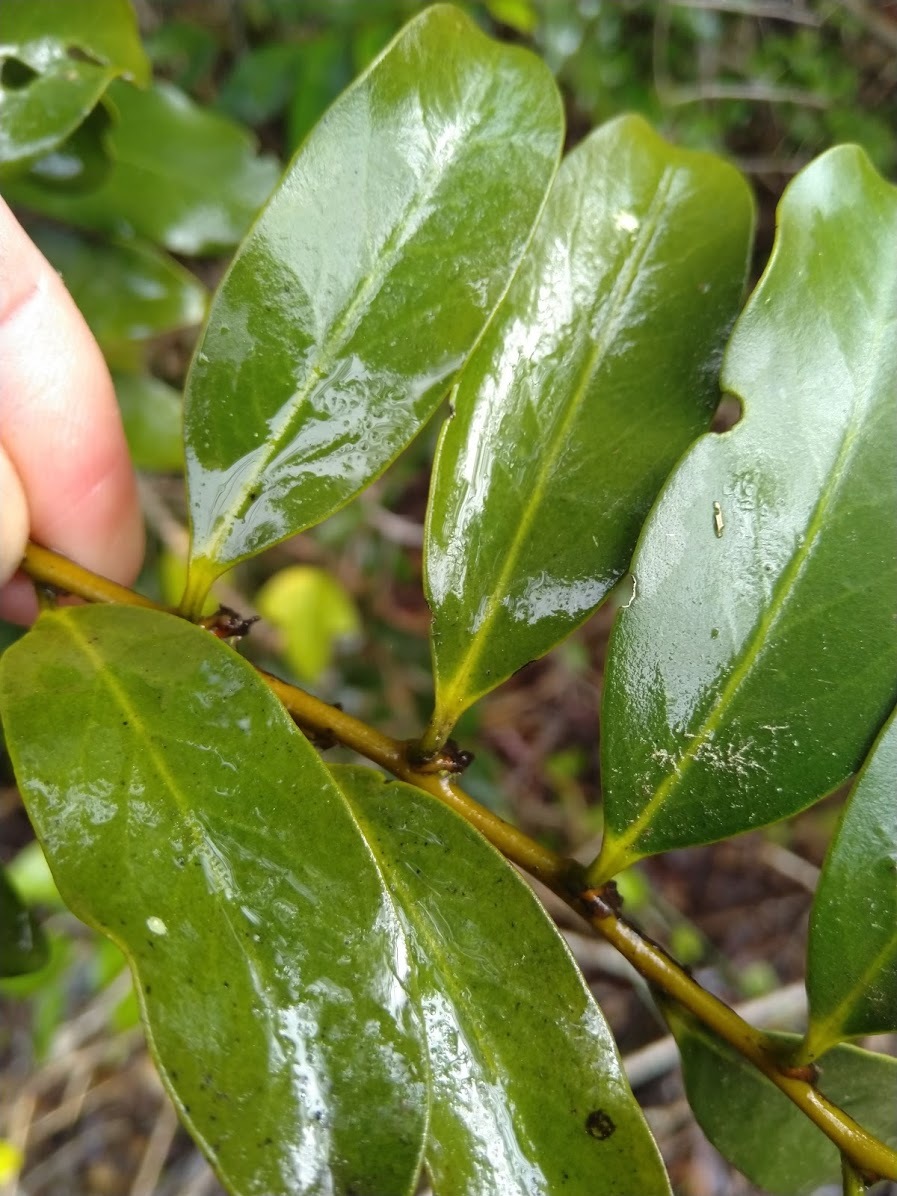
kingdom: Plantae
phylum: Tracheophyta
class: Magnoliopsida
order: Ericales
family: Ebenaceae
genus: Diospyros
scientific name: Diospyros australis
